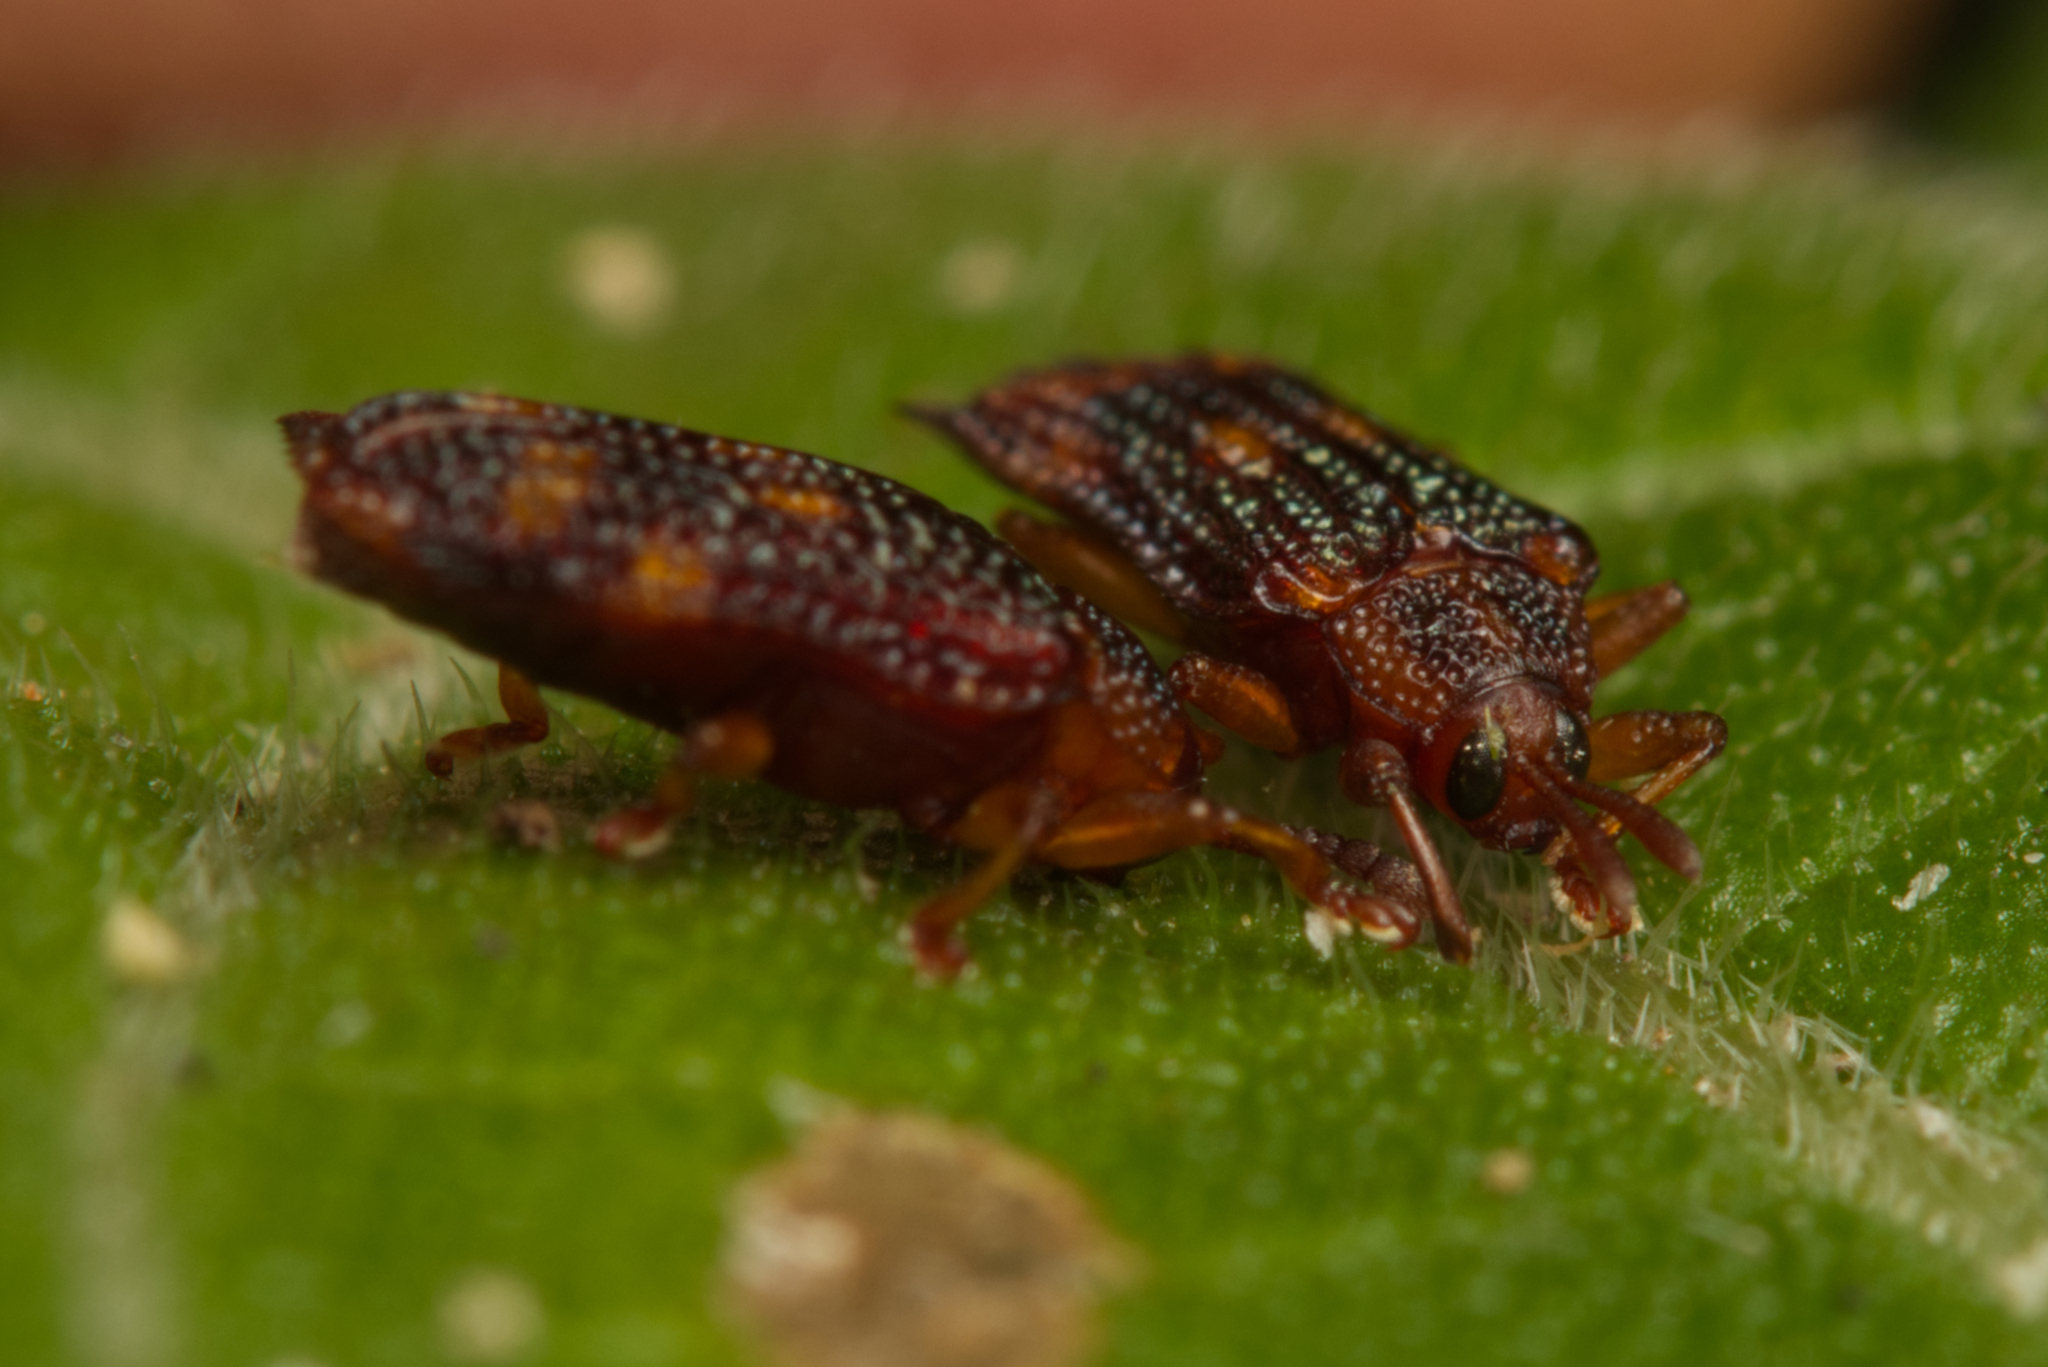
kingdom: Animalia
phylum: Arthropoda
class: Insecta
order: Coleoptera
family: Chrysomelidae
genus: Uroplata
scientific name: Uroplata girardi
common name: Lantana leafminer
